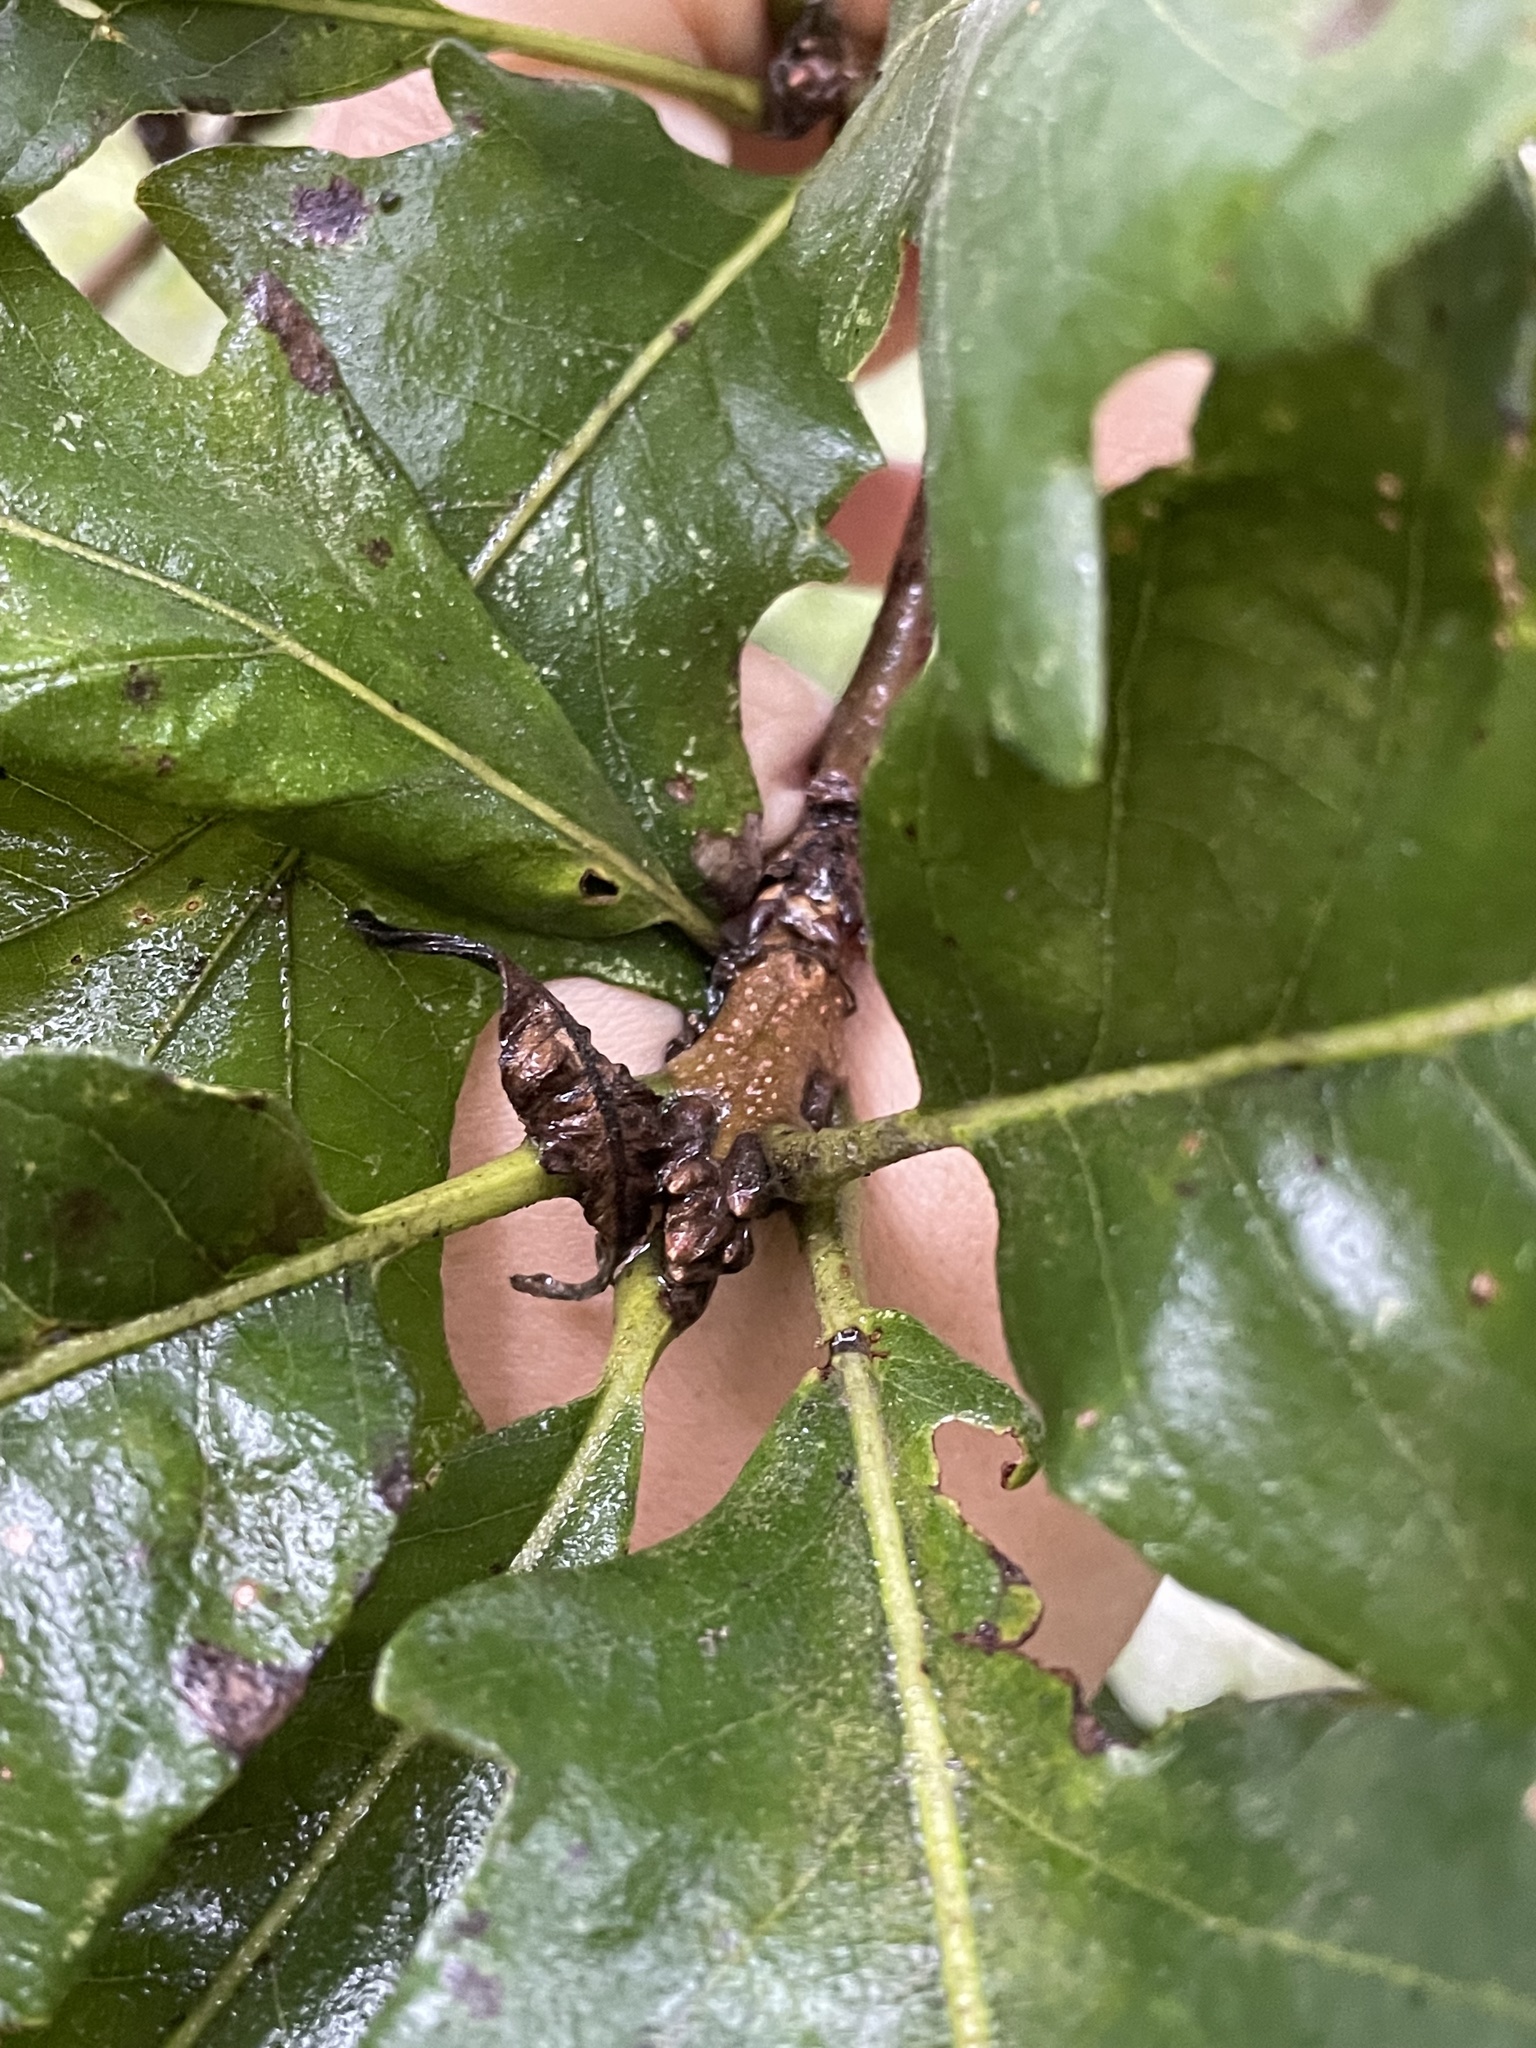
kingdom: Plantae
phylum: Tracheophyta
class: Magnoliopsida
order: Fagales
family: Fagaceae
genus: Quercus
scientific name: Quercus macrocarpa
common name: Bur oak
